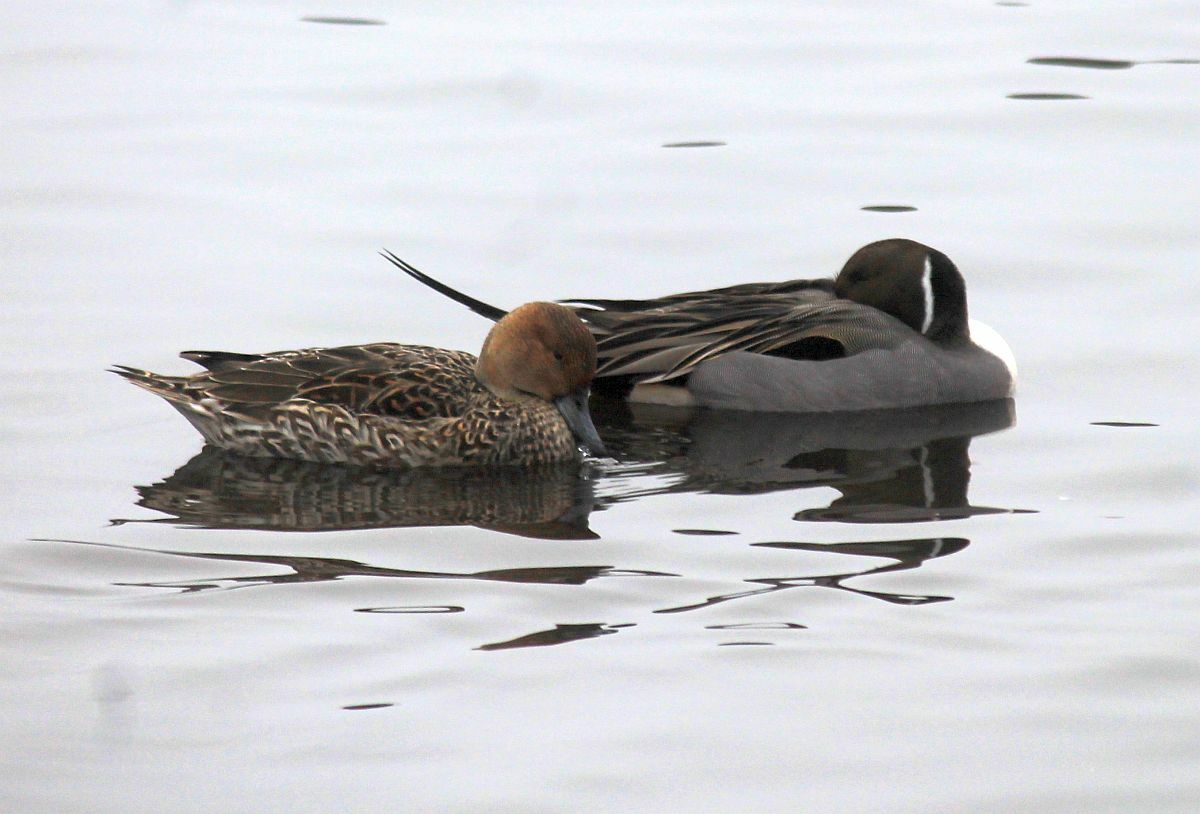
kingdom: Animalia
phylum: Chordata
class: Aves
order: Anseriformes
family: Anatidae
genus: Anas
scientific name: Anas acuta
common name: Northern pintail
